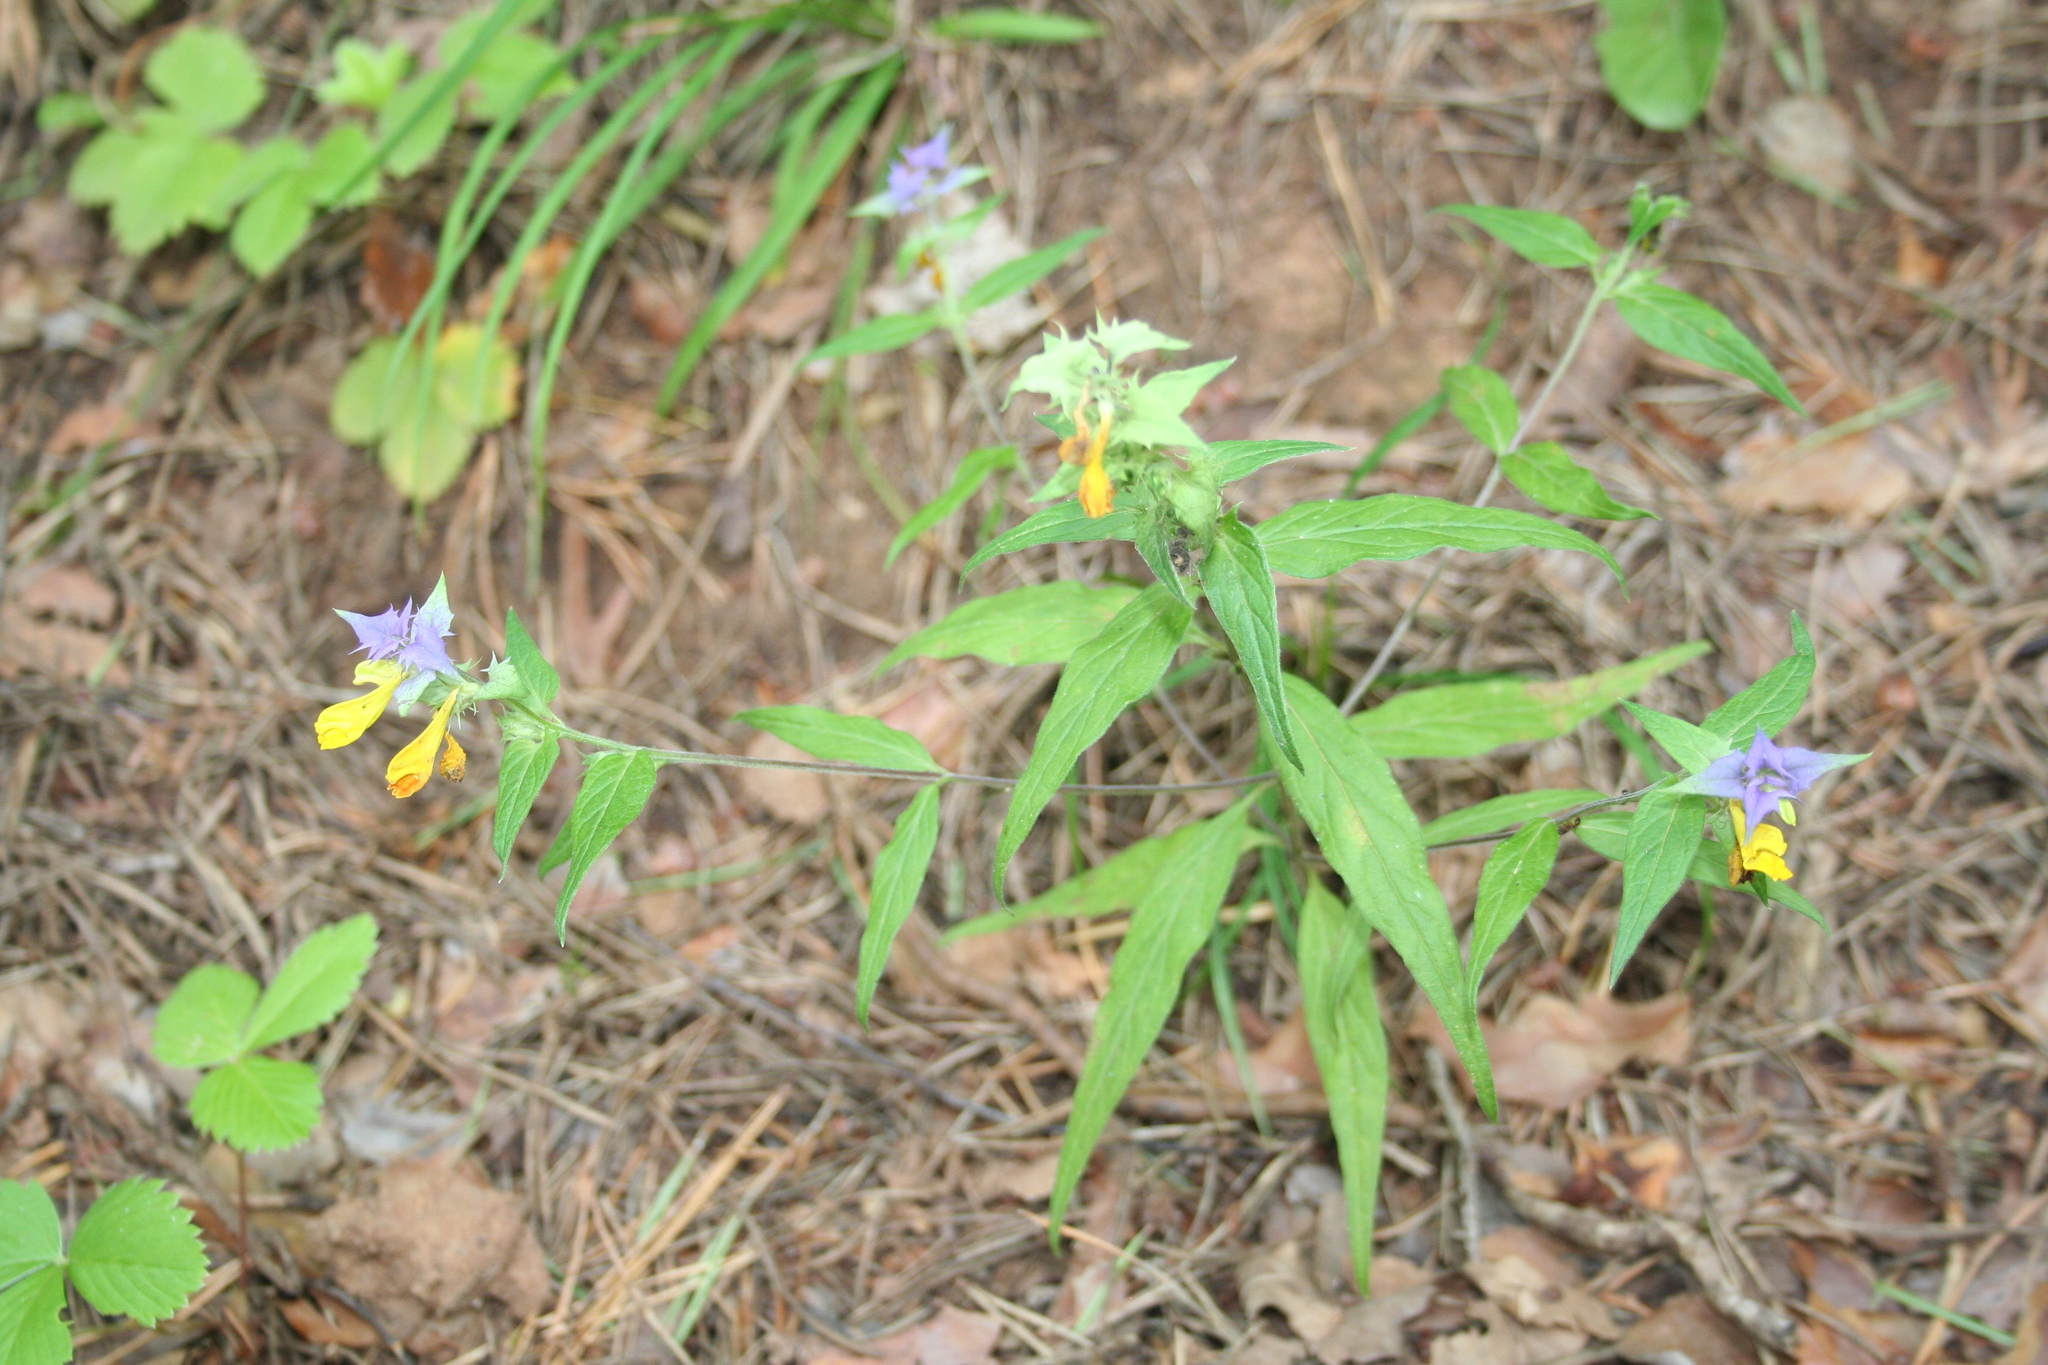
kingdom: Plantae
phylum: Tracheophyta
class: Magnoliopsida
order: Lamiales
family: Orobanchaceae
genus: Melampyrum
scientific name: Melampyrum nemorosum
